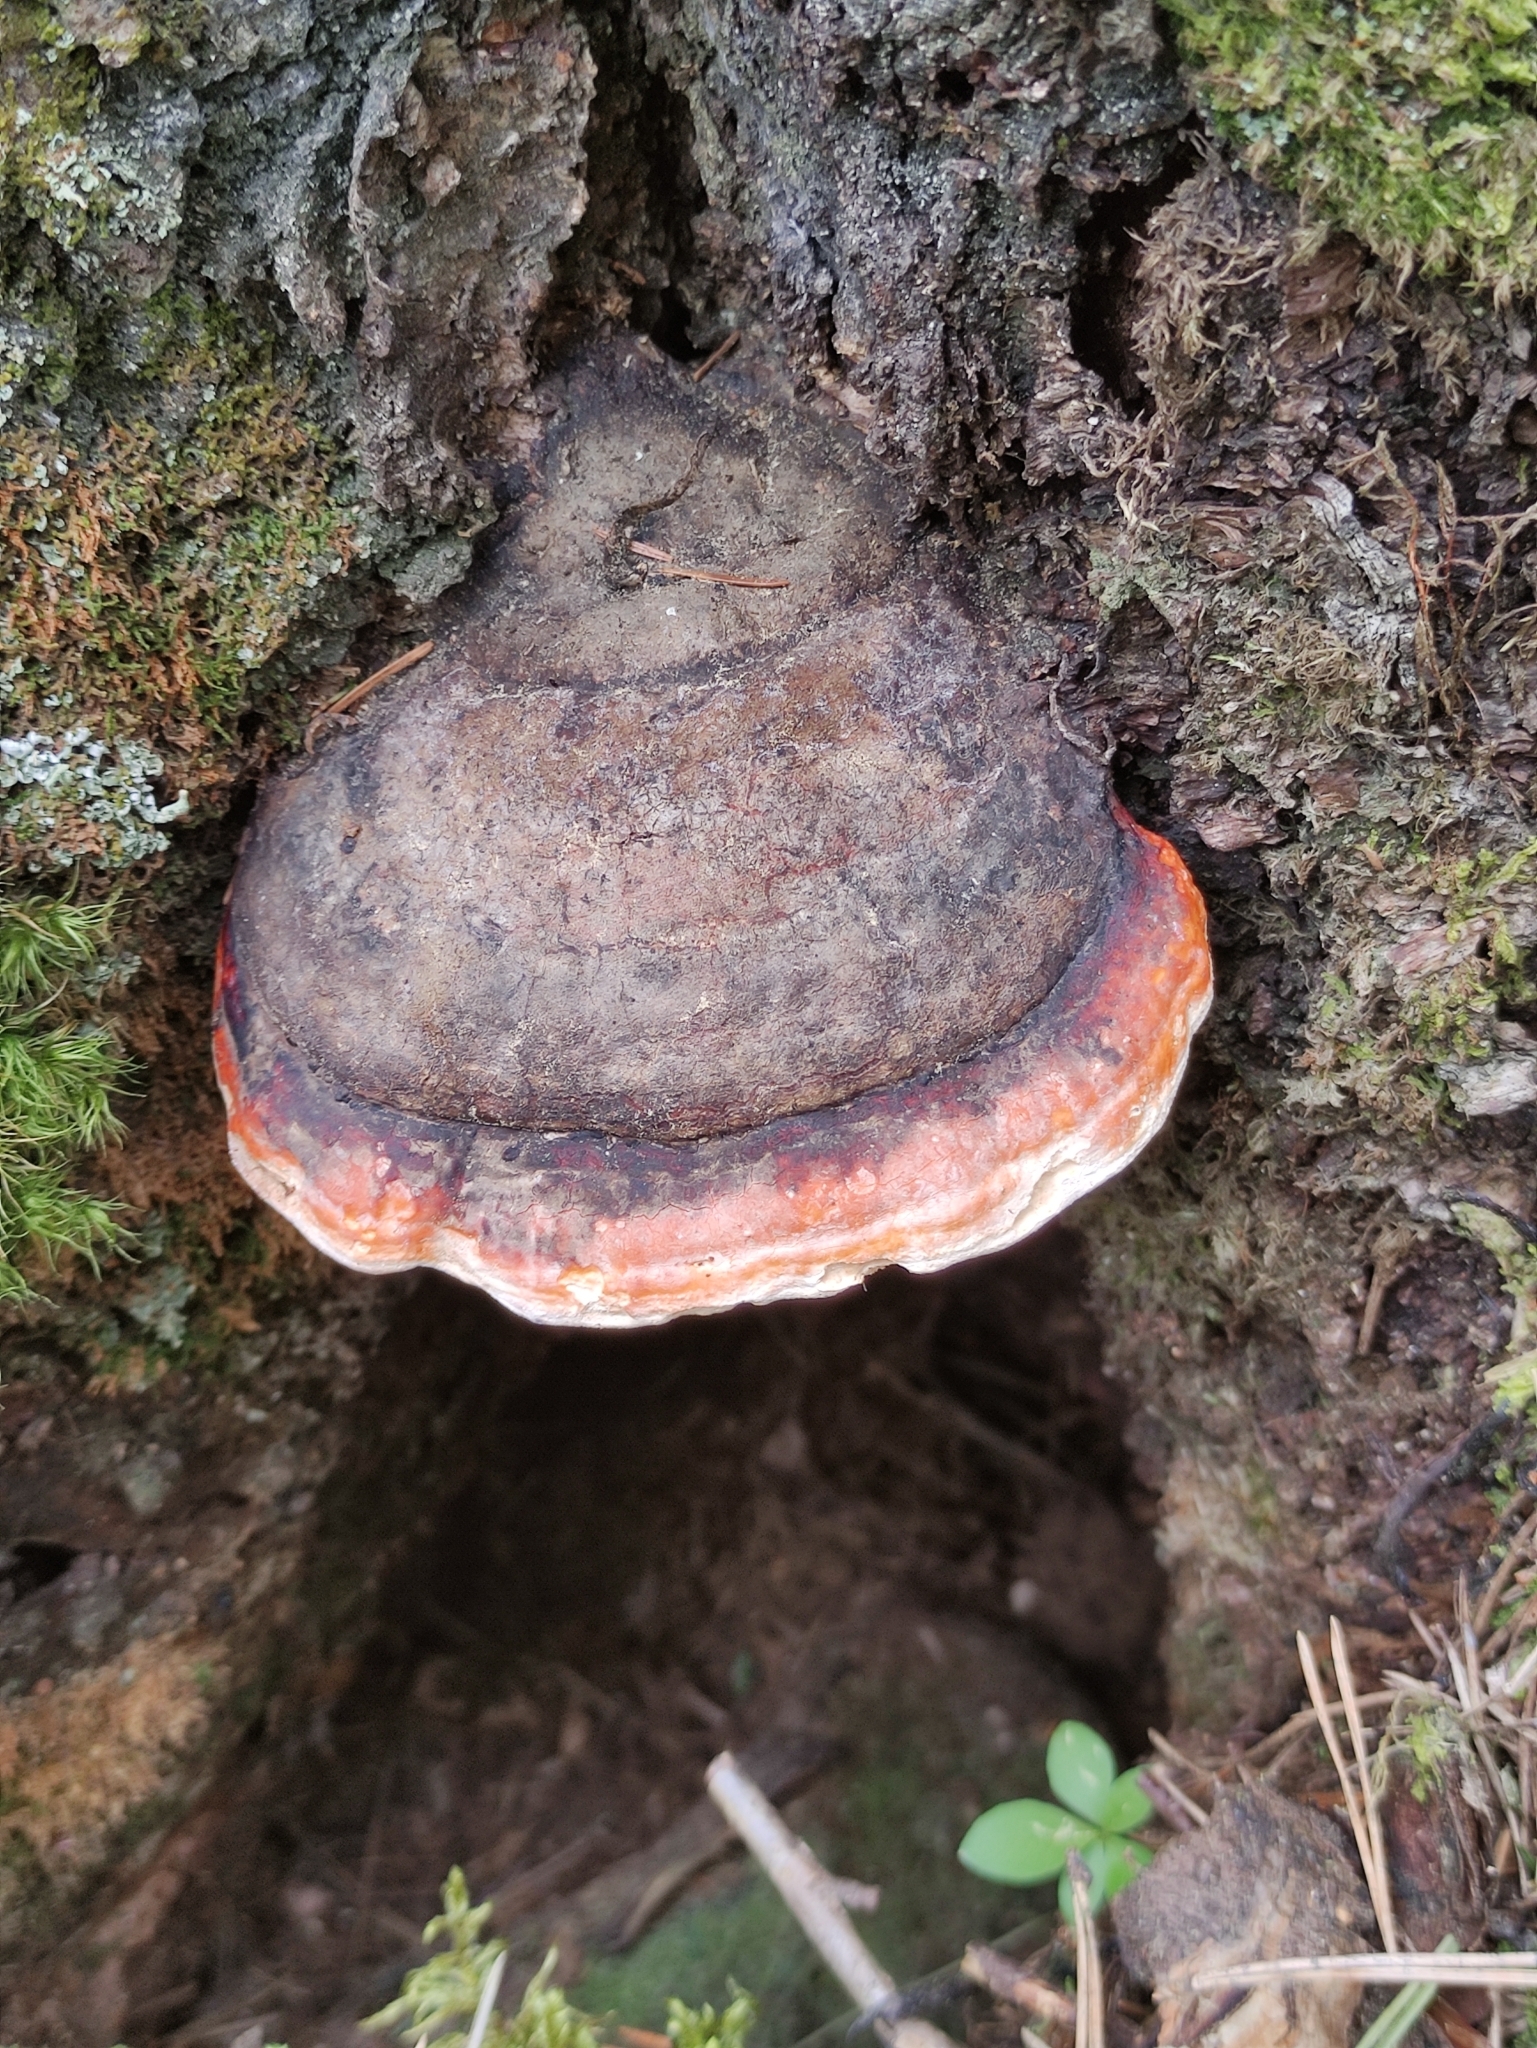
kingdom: Fungi
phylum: Basidiomycota
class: Agaricomycetes
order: Polyporales
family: Fomitopsidaceae
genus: Fomitopsis
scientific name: Fomitopsis pinicola
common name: Red-belted bracket
